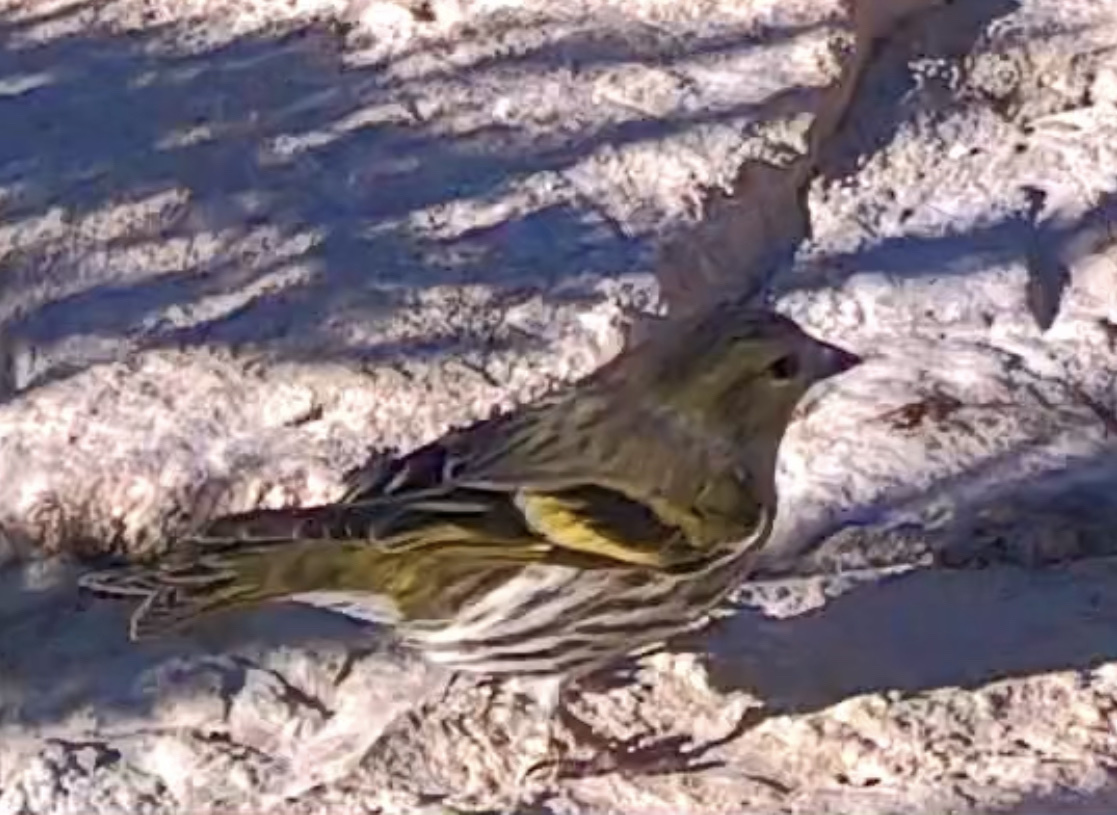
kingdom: Animalia
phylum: Chordata
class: Aves
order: Passeriformes
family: Fringillidae
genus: Spinus
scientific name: Spinus spinus
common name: Eurasian siskin
